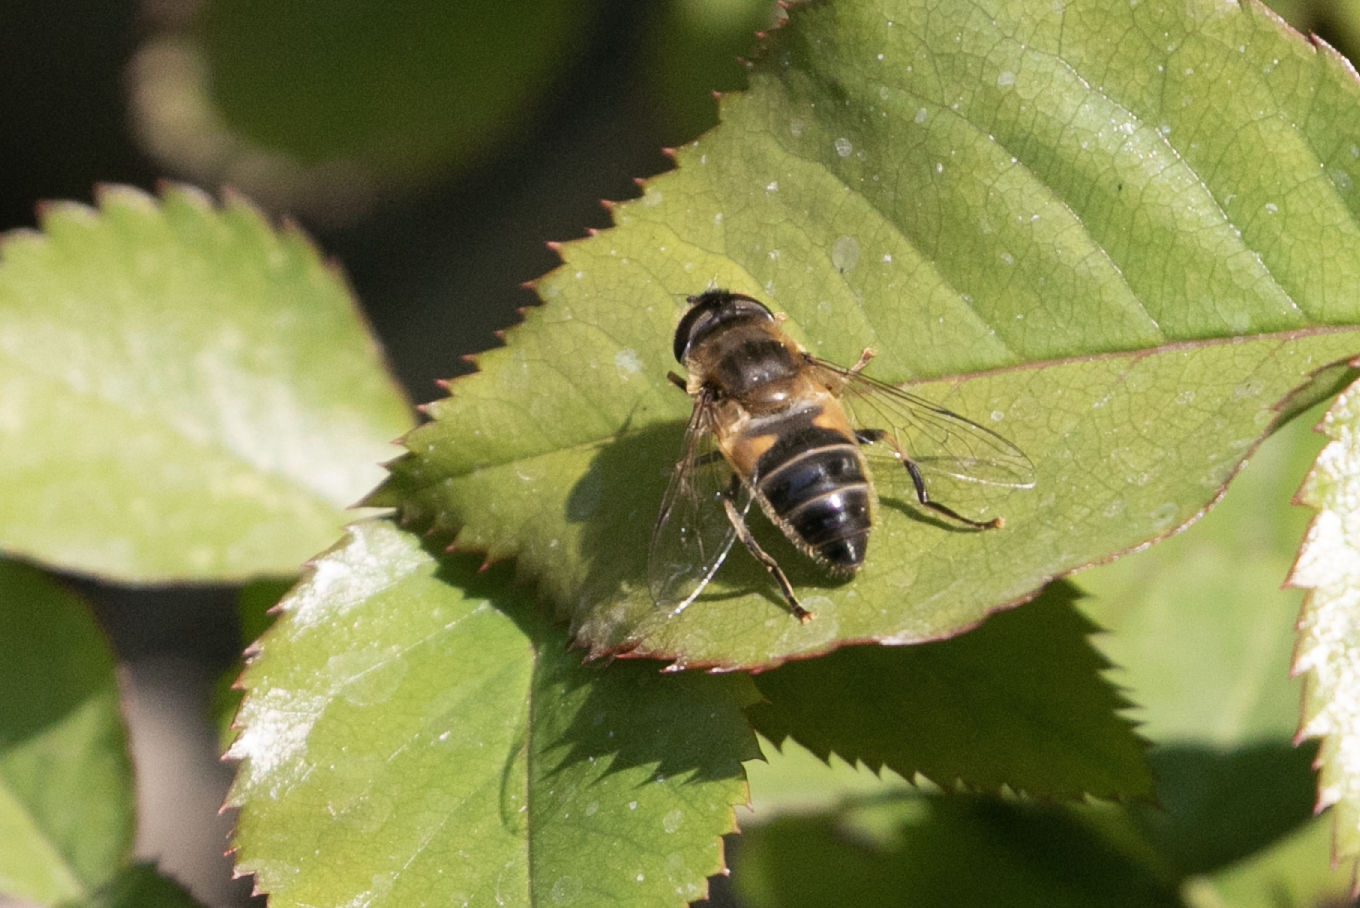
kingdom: Animalia
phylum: Arthropoda
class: Insecta
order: Diptera
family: Syrphidae
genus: Eristalis
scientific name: Eristalis pertinax
